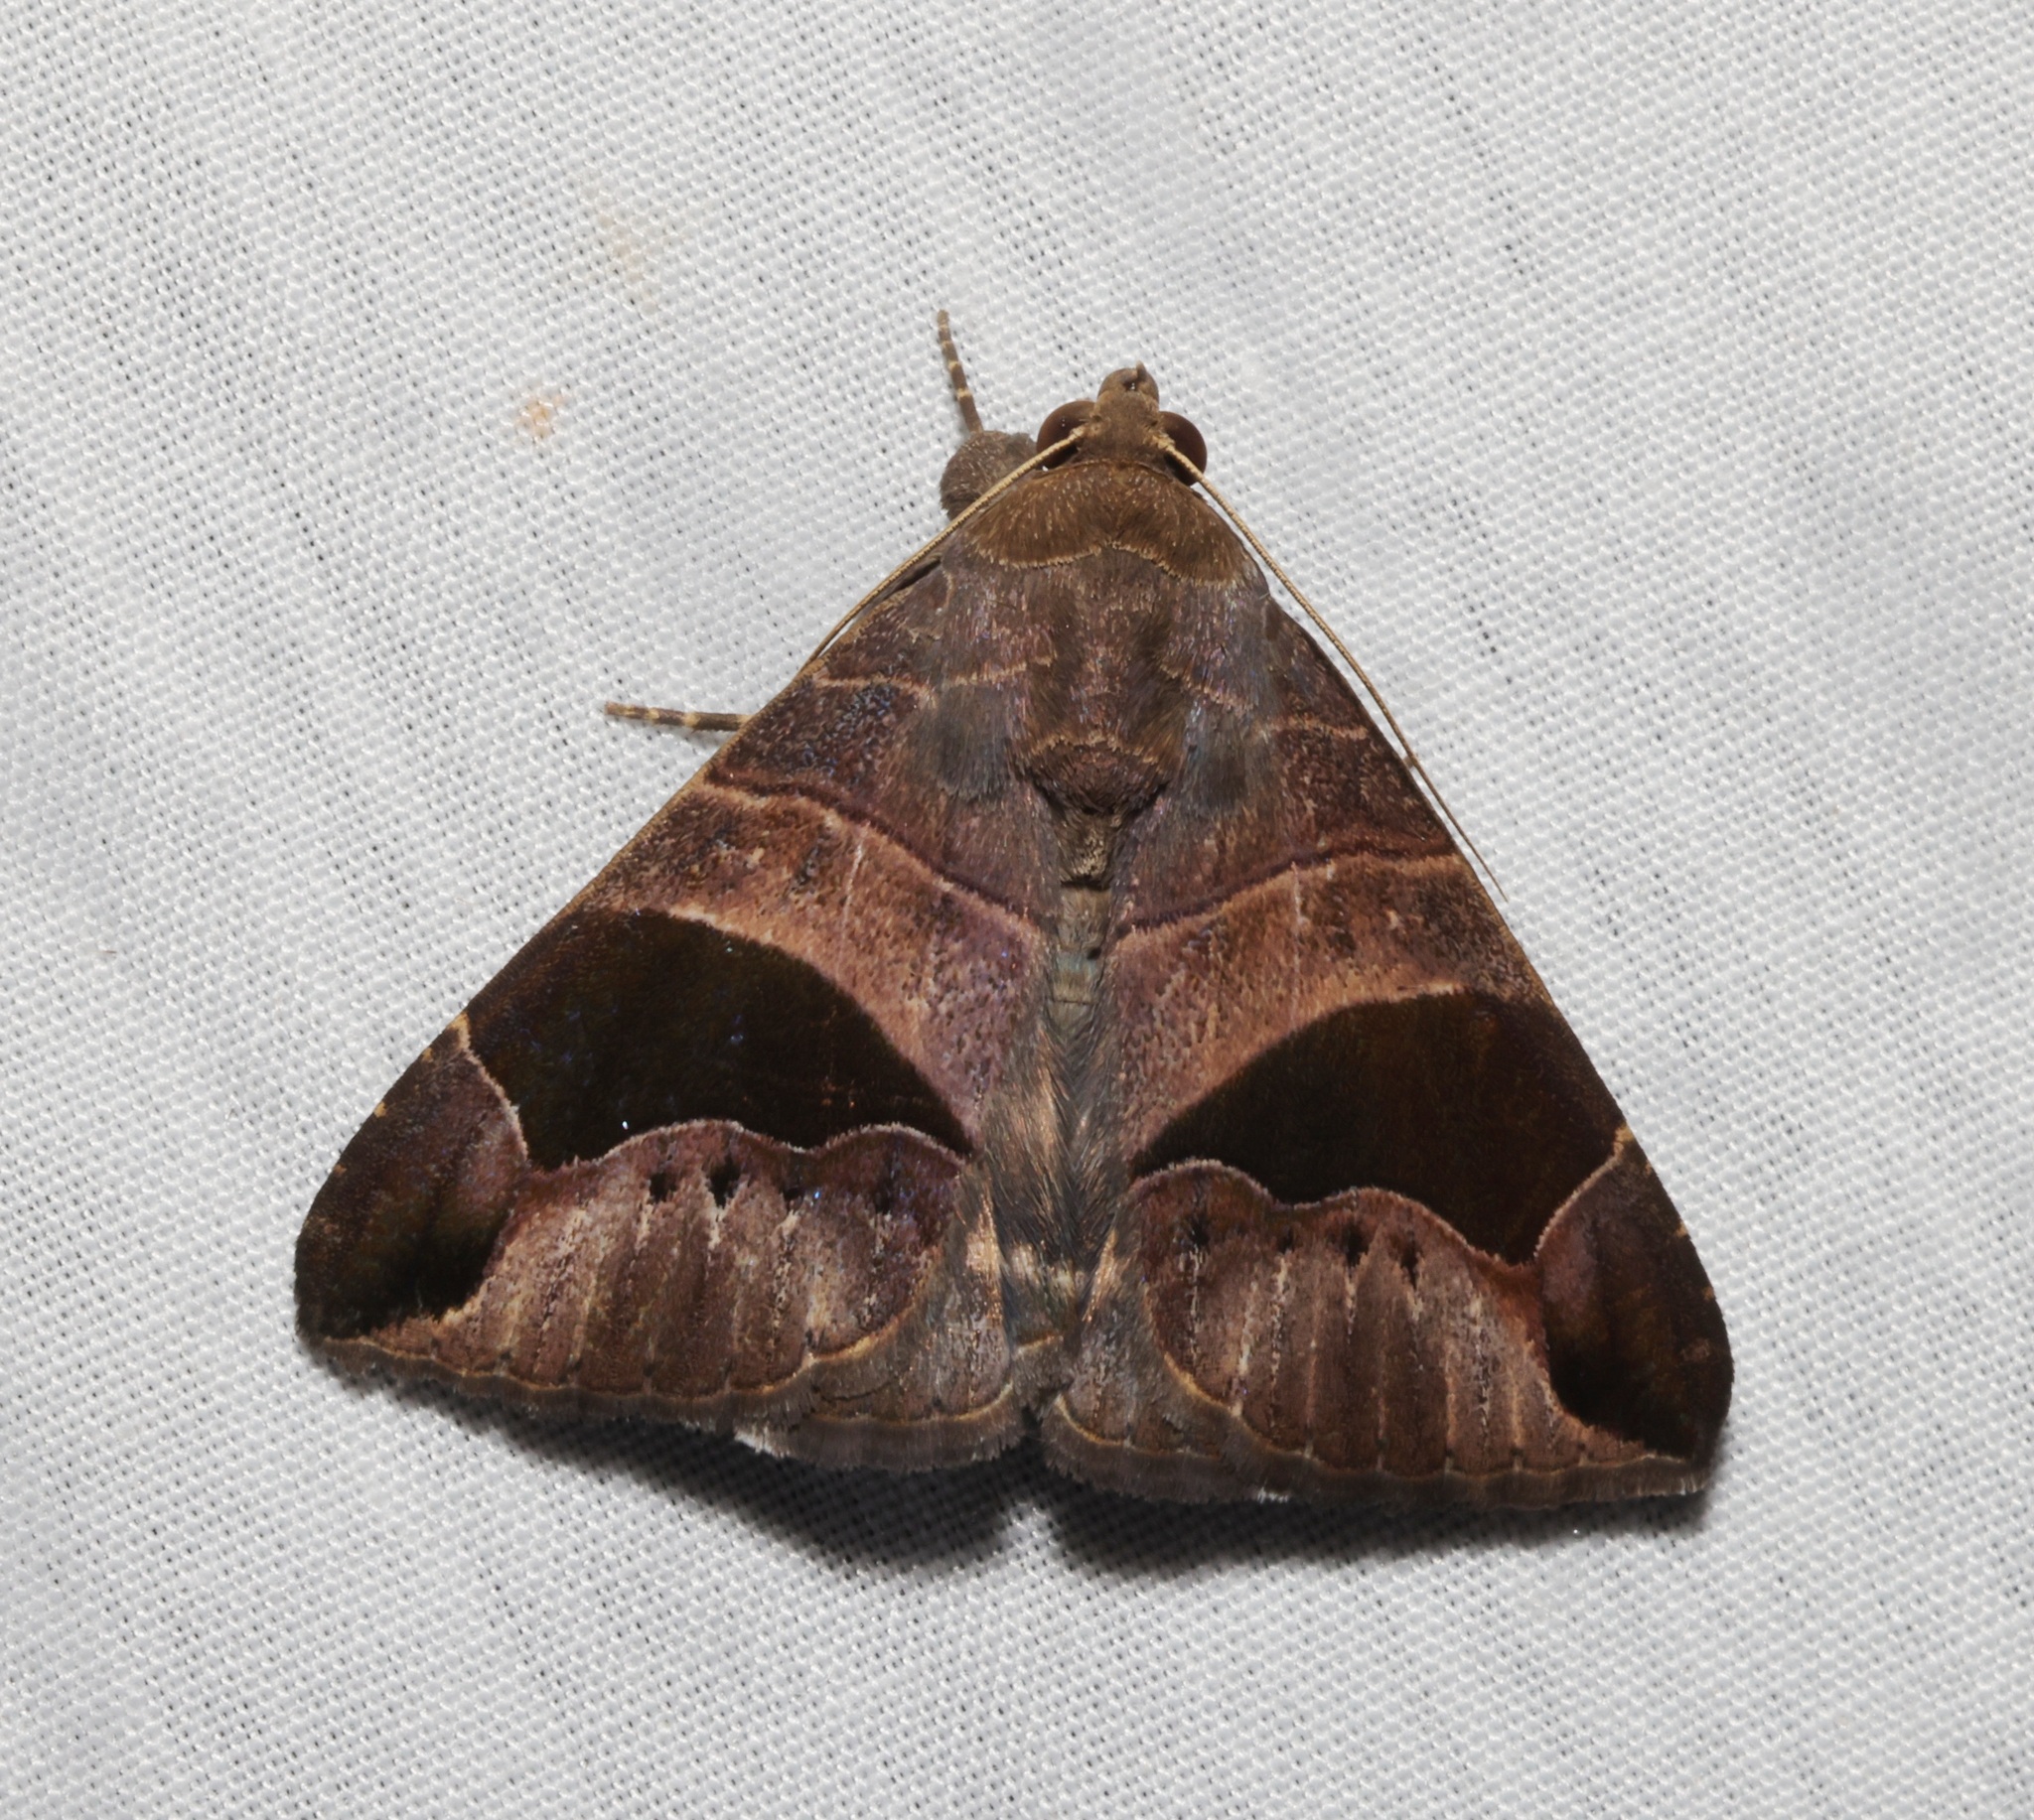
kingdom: Animalia
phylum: Arthropoda
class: Insecta
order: Lepidoptera
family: Erebidae
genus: Bastilla
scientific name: Bastilla joviana
